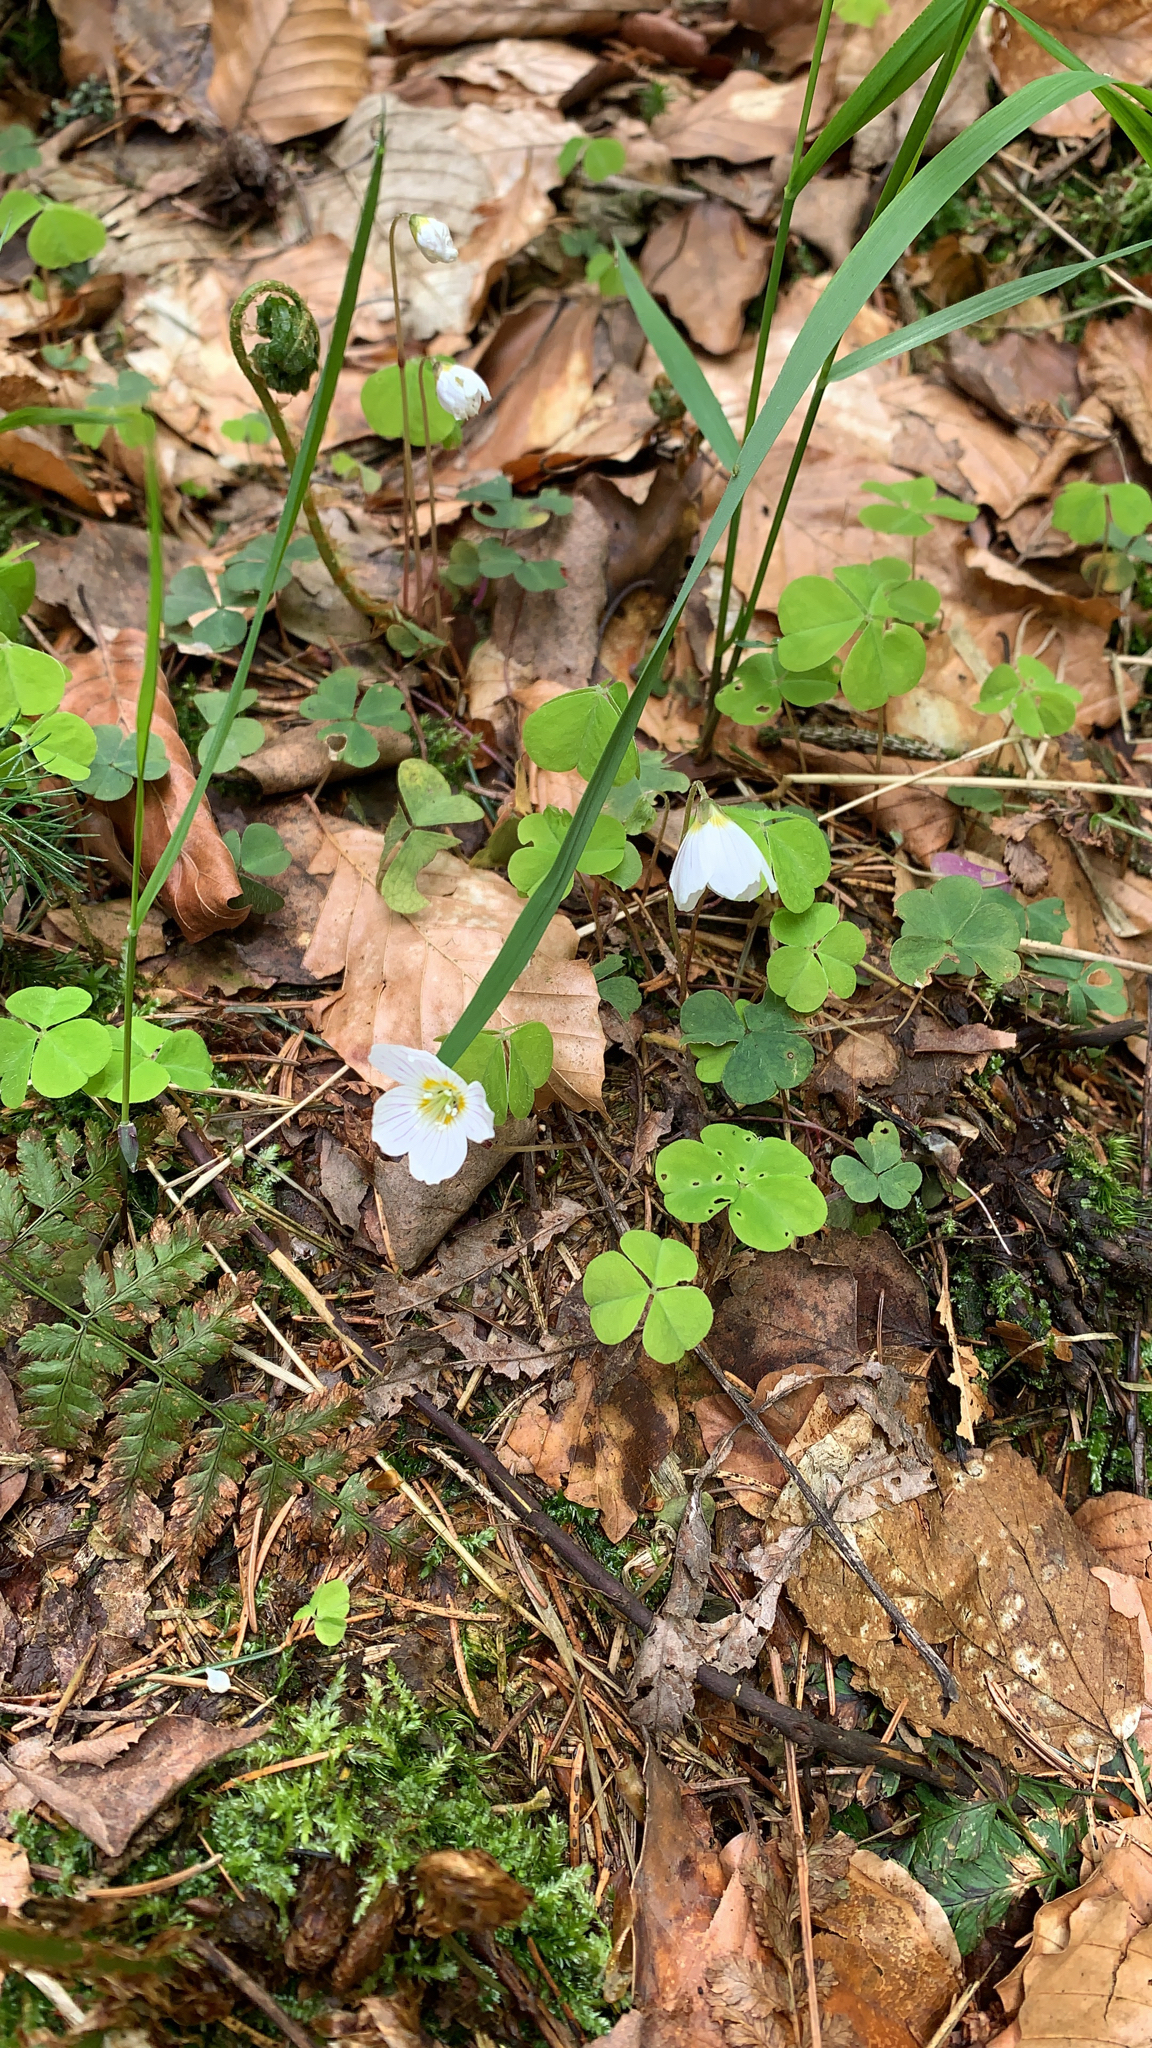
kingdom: Plantae
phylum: Tracheophyta
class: Magnoliopsida
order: Oxalidales
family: Oxalidaceae
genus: Oxalis
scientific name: Oxalis acetosella
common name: Wood-sorrel
